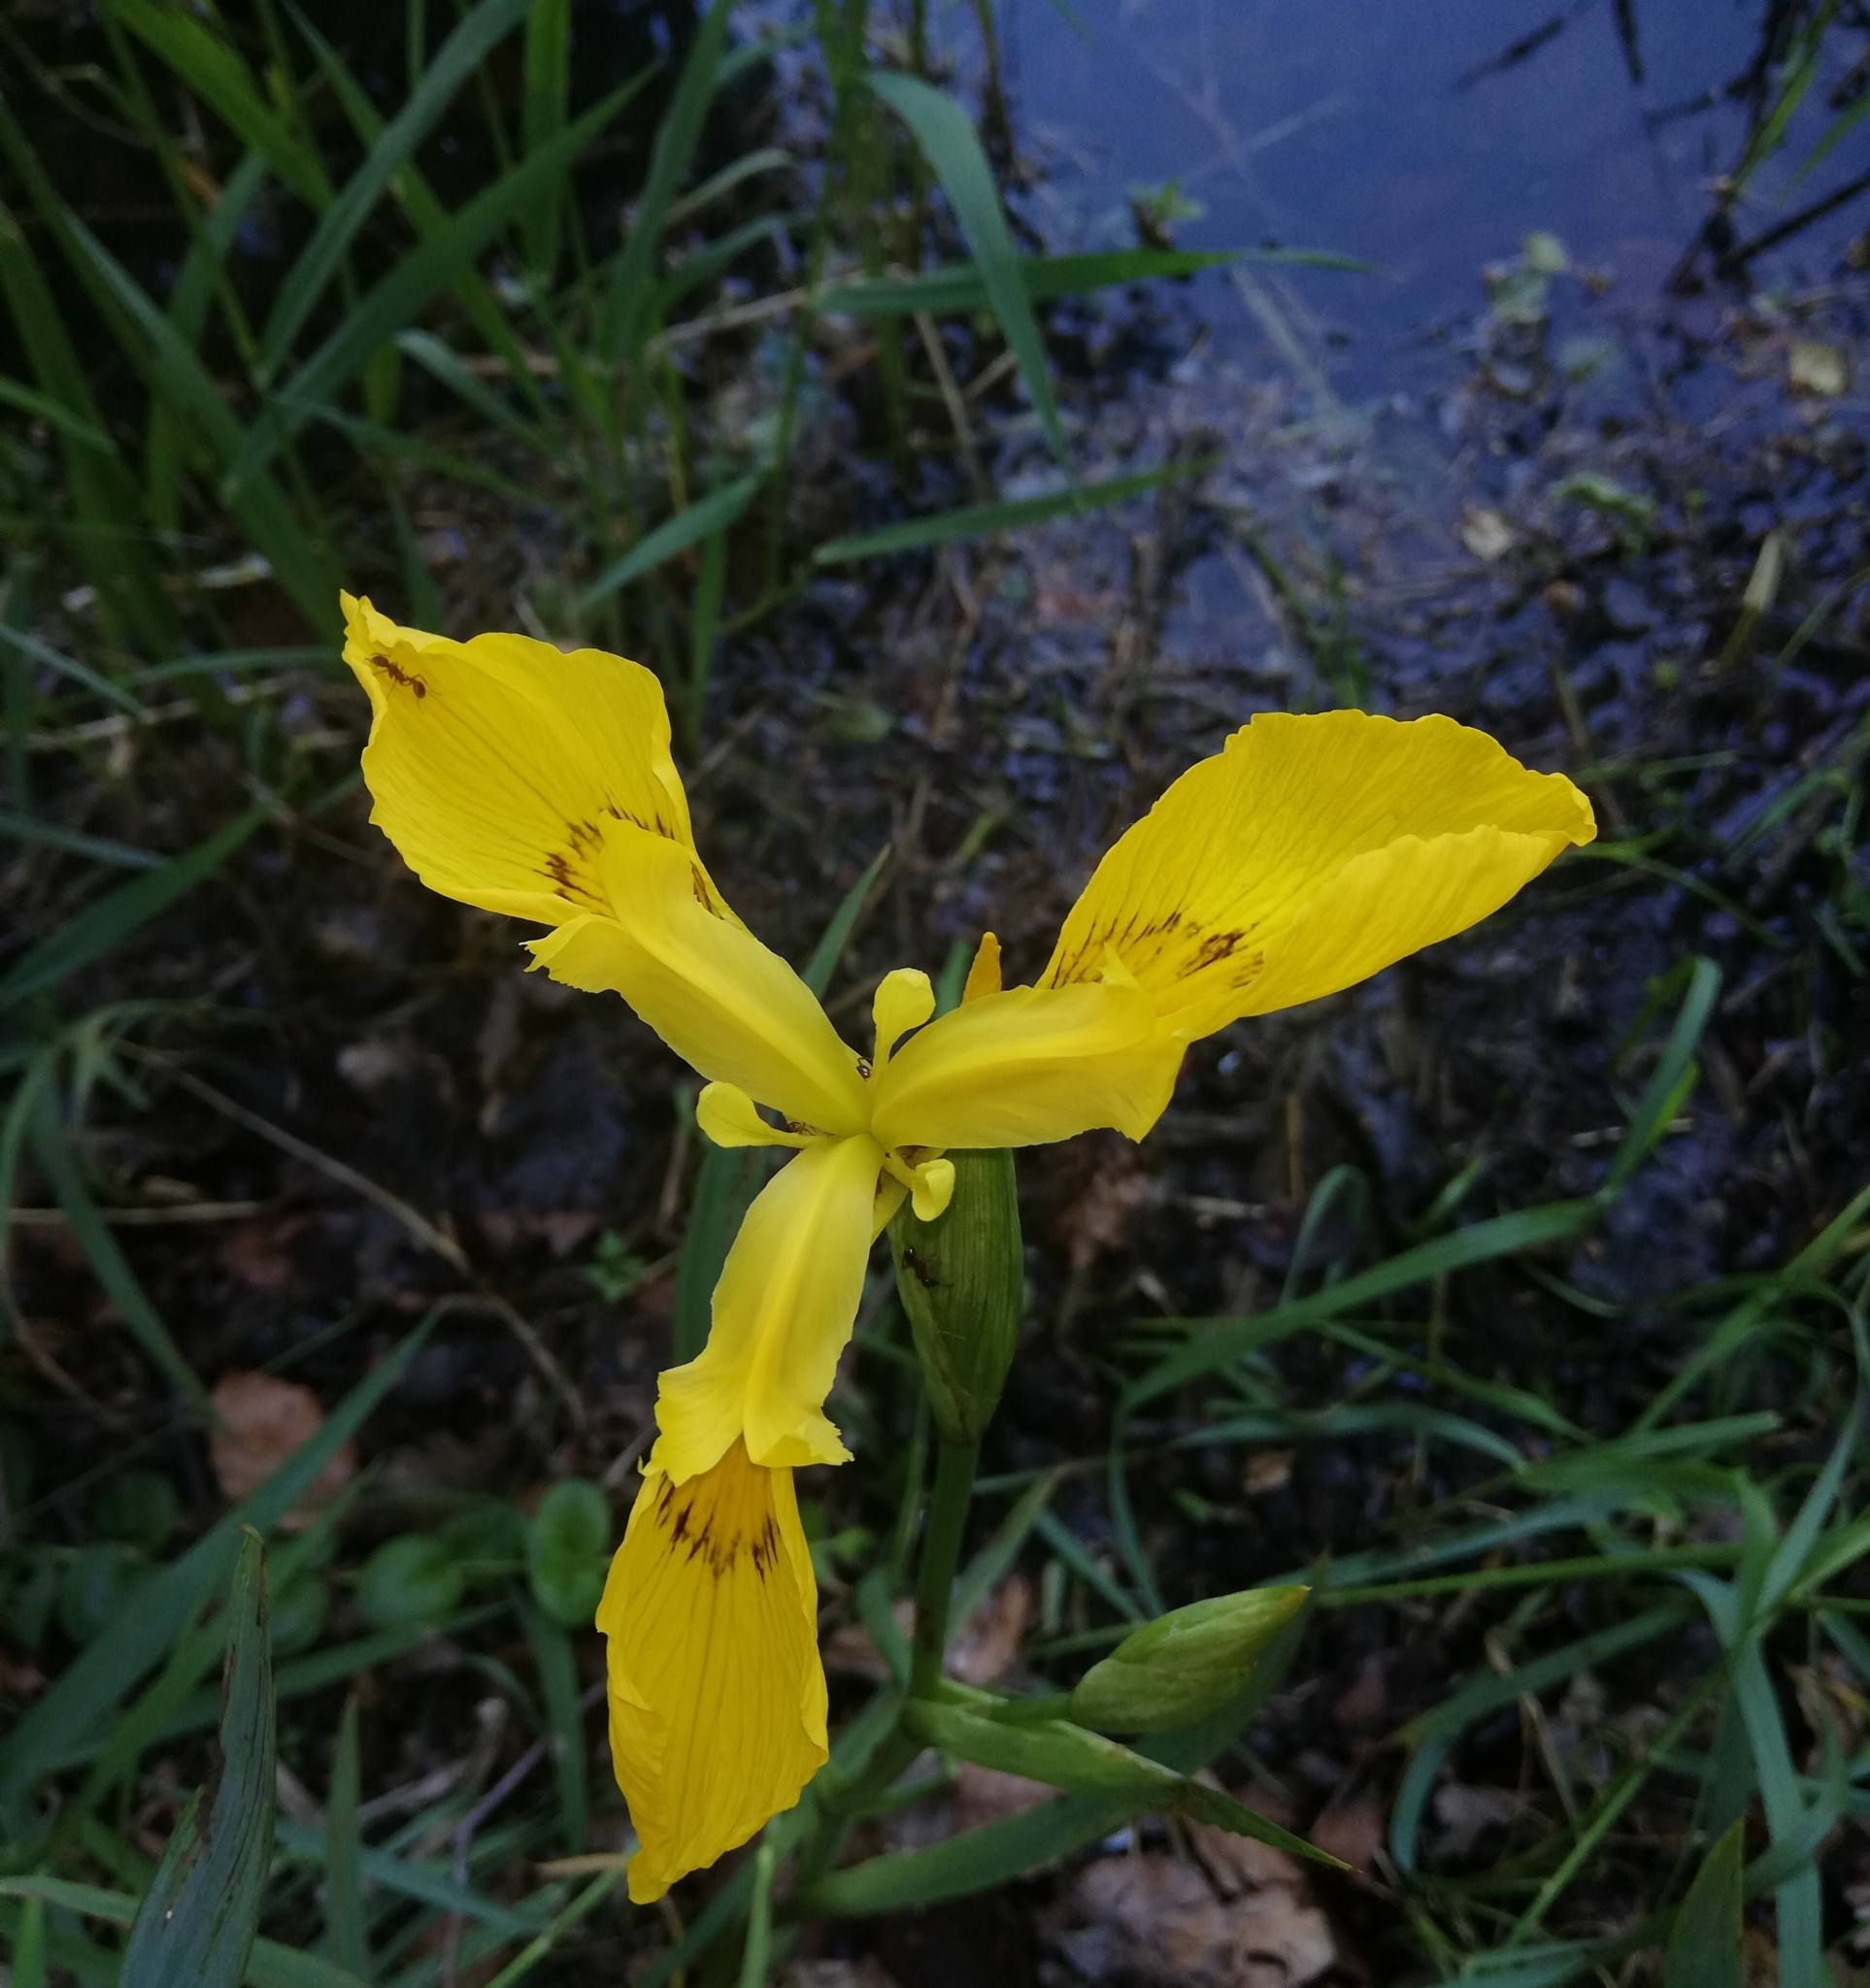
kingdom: Plantae
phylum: Tracheophyta
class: Liliopsida
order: Asparagales
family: Iridaceae
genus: Iris
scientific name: Iris pseudacorus
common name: Yellow flag
